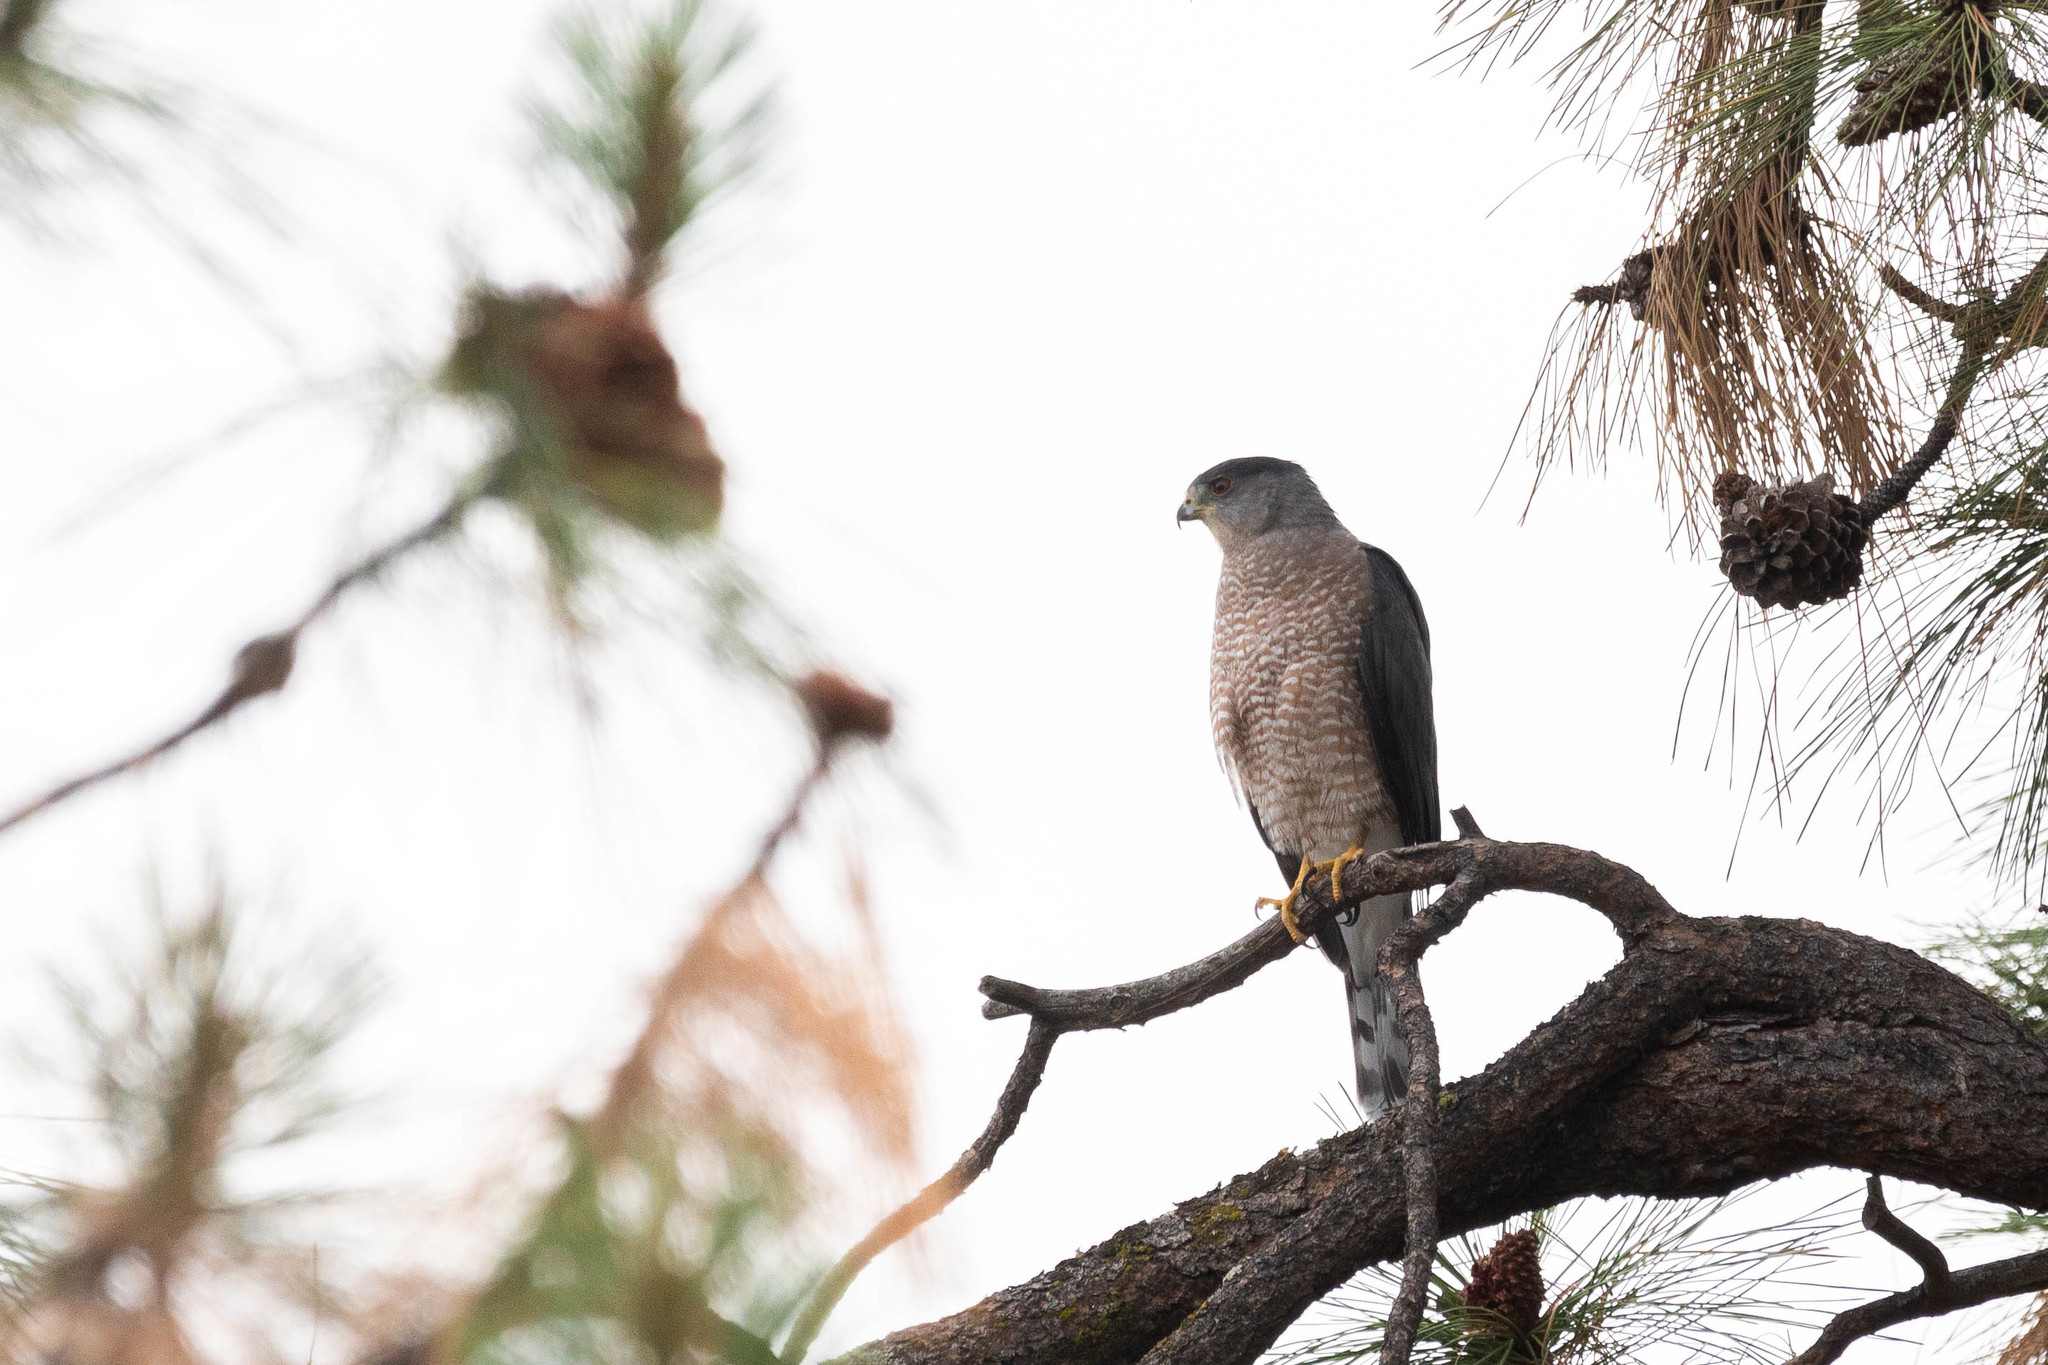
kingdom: Animalia
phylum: Chordata
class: Aves
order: Accipitriformes
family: Accipitridae
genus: Accipiter
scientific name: Accipiter cooperii
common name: Cooper's hawk
